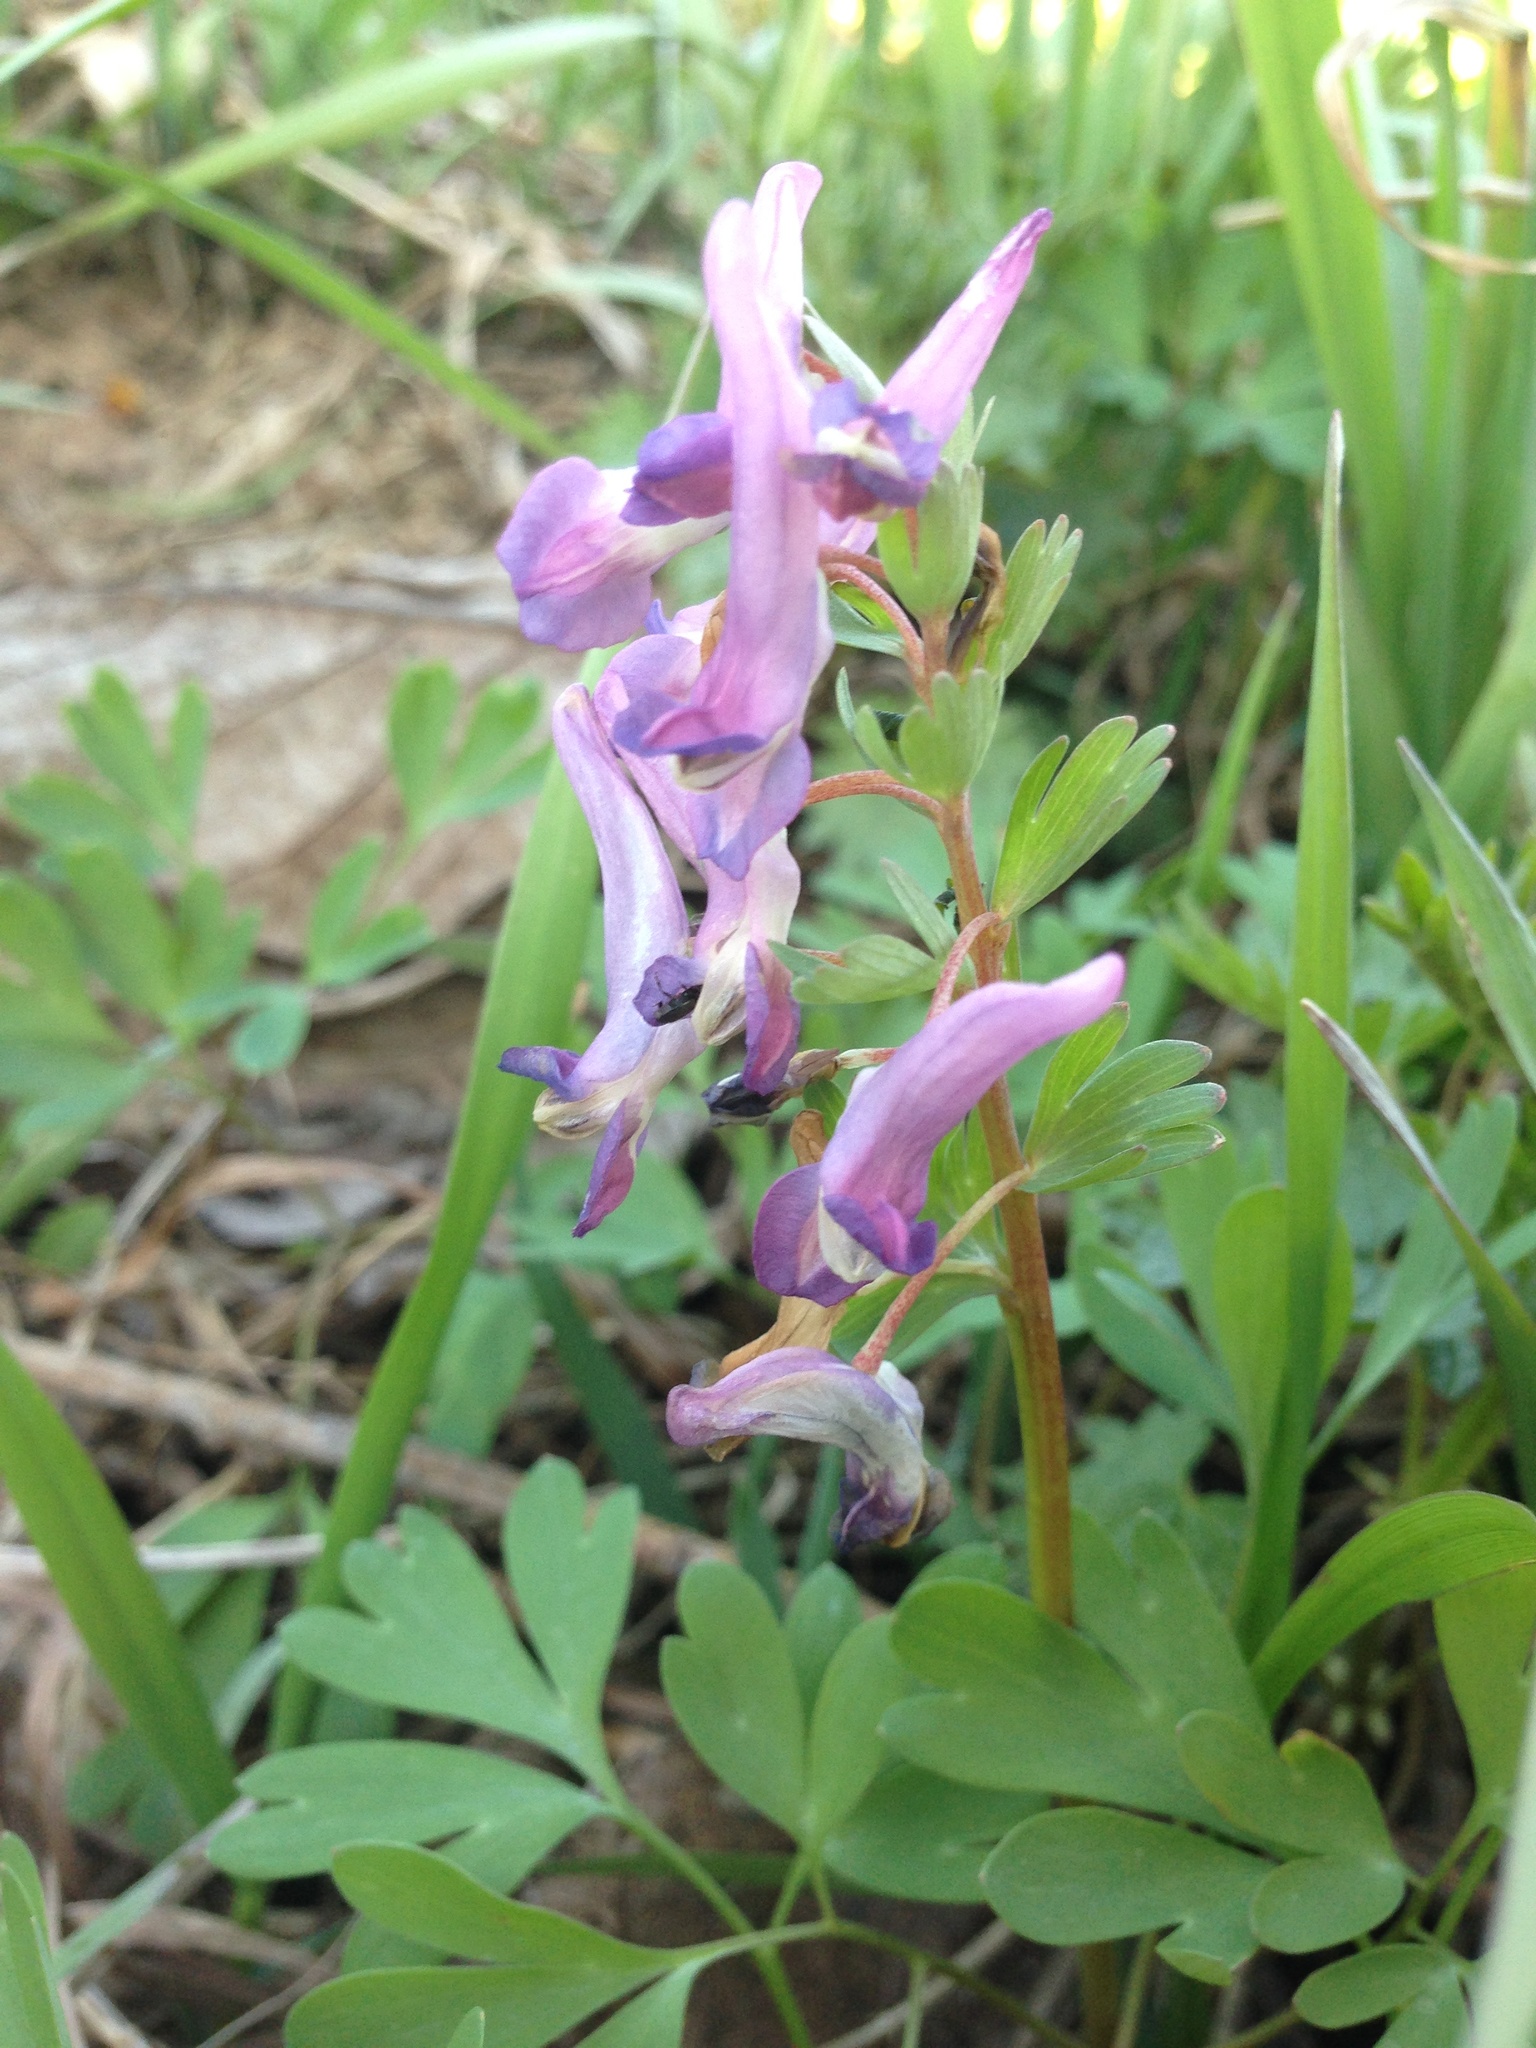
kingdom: Plantae
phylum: Tracheophyta
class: Magnoliopsida
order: Ranunculales
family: Papaveraceae
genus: Corydalis
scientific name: Corydalis solida
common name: Bird-in-a-bush
